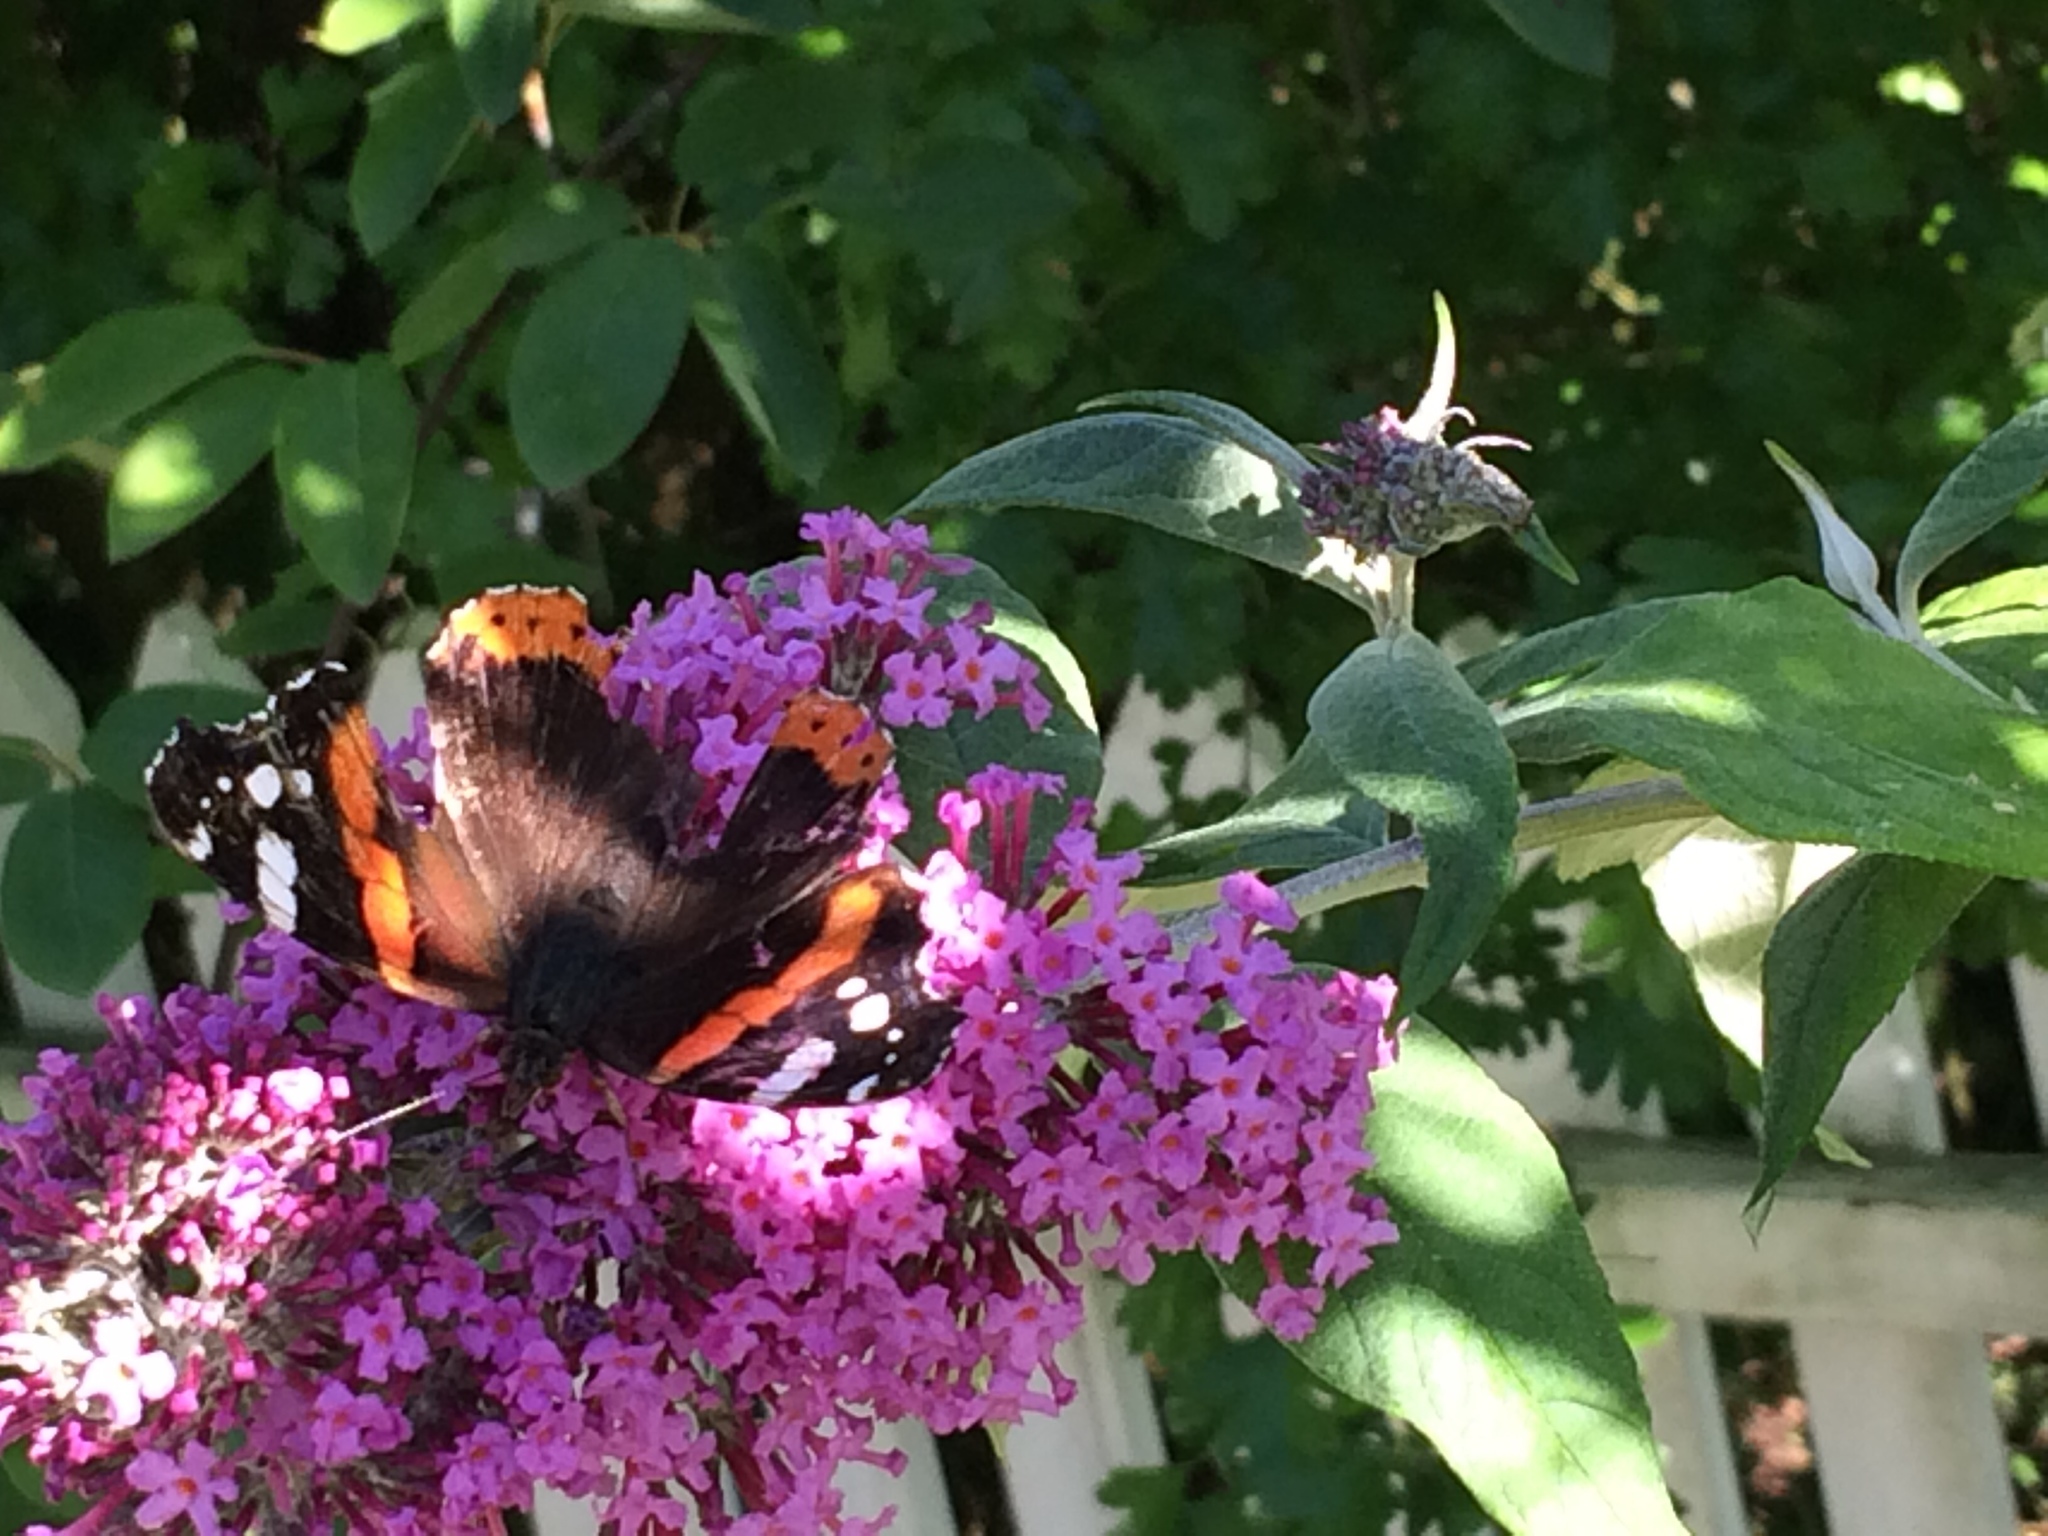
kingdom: Animalia
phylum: Arthropoda
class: Insecta
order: Lepidoptera
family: Nymphalidae
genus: Vanessa
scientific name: Vanessa atalanta
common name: Red admiral
